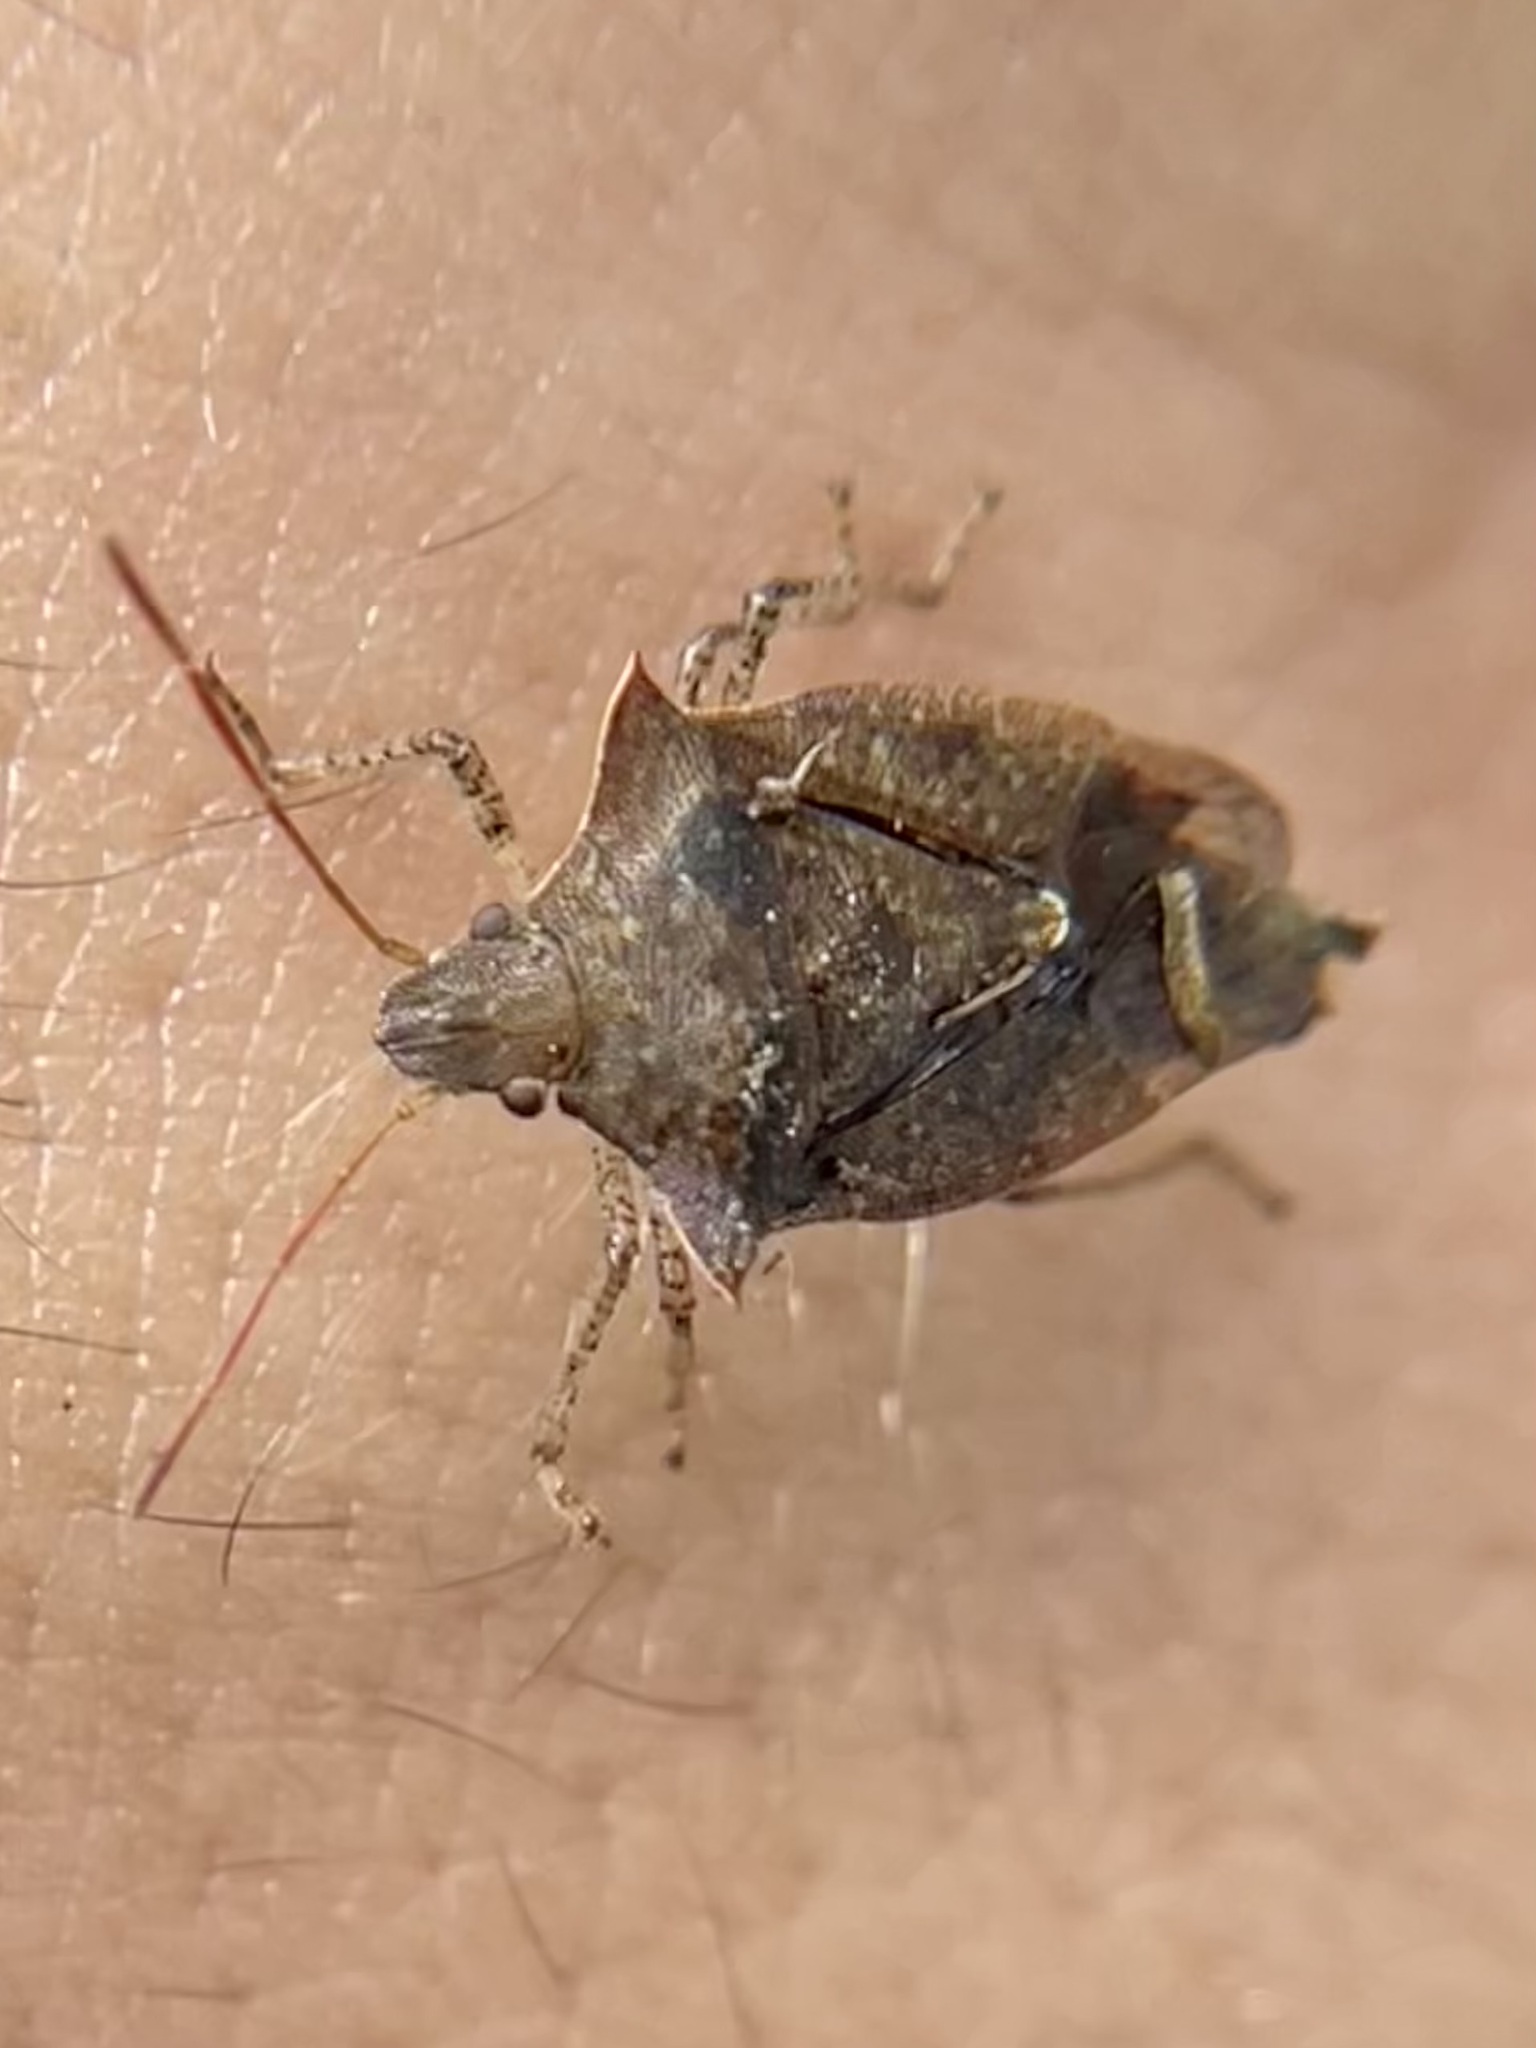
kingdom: Animalia
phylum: Arthropoda
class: Insecta
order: Hemiptera
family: Pentatomidae
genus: Euschistus
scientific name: Euschistus tristigmus
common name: Dusky stink bug
